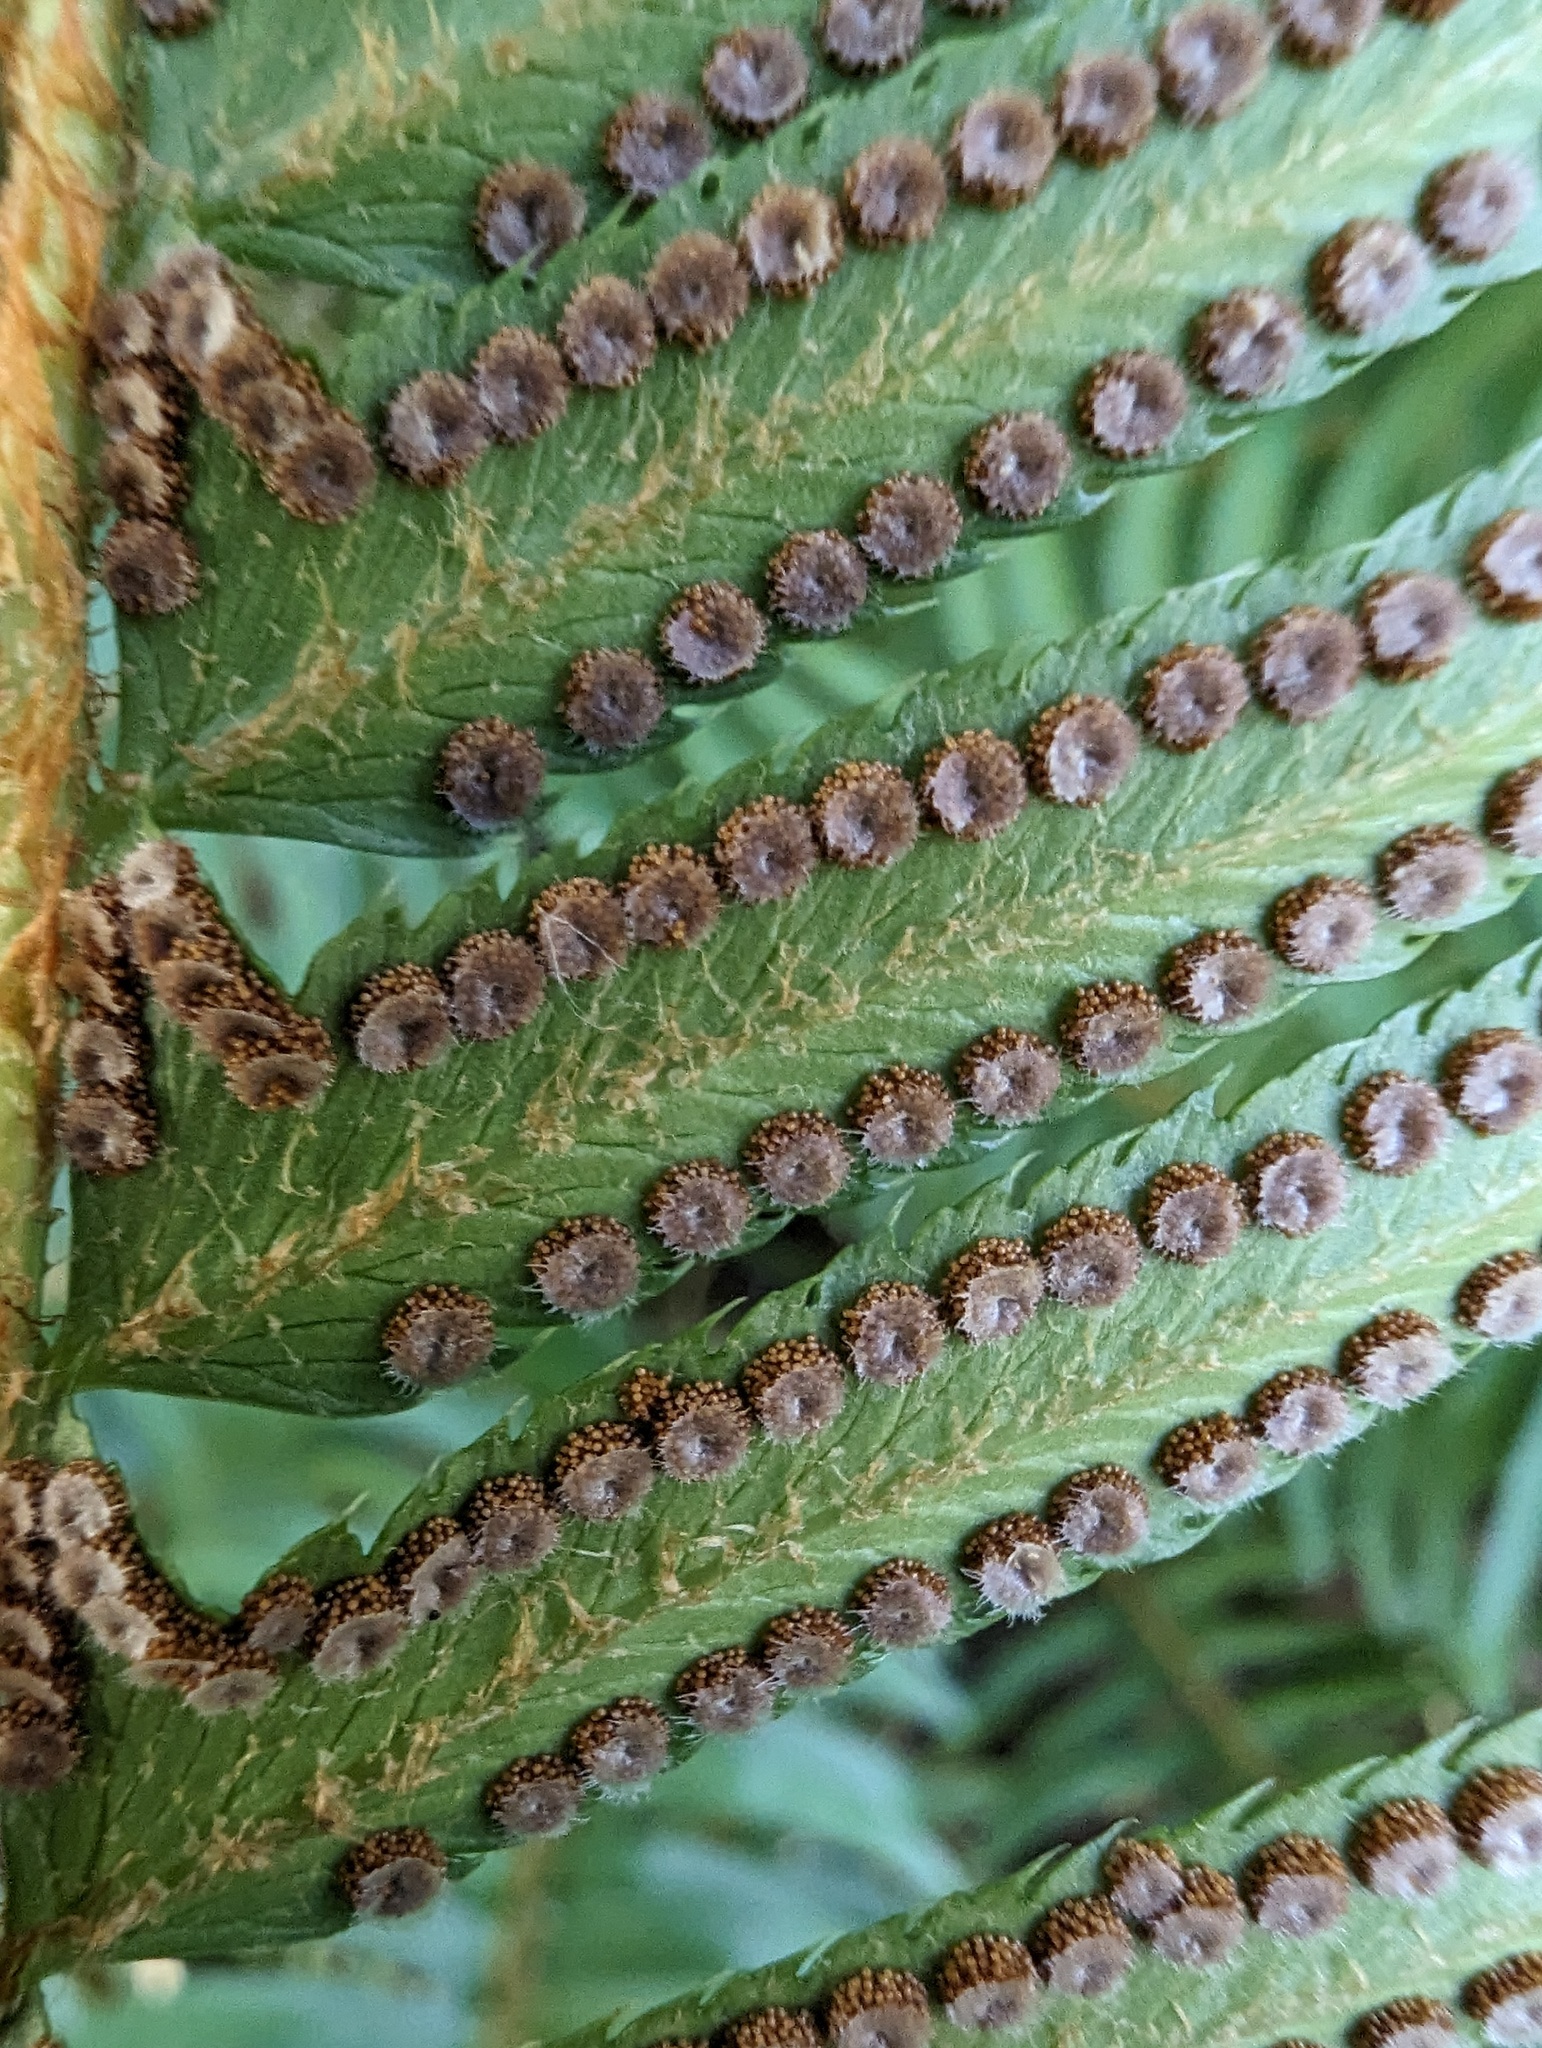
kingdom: Plantae
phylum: Tracheophyta
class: Polypodiopsida
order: Polypodiales
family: Dryopteridaceae
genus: Polystichum
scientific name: Polystichum munitum
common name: Western sword-fern
